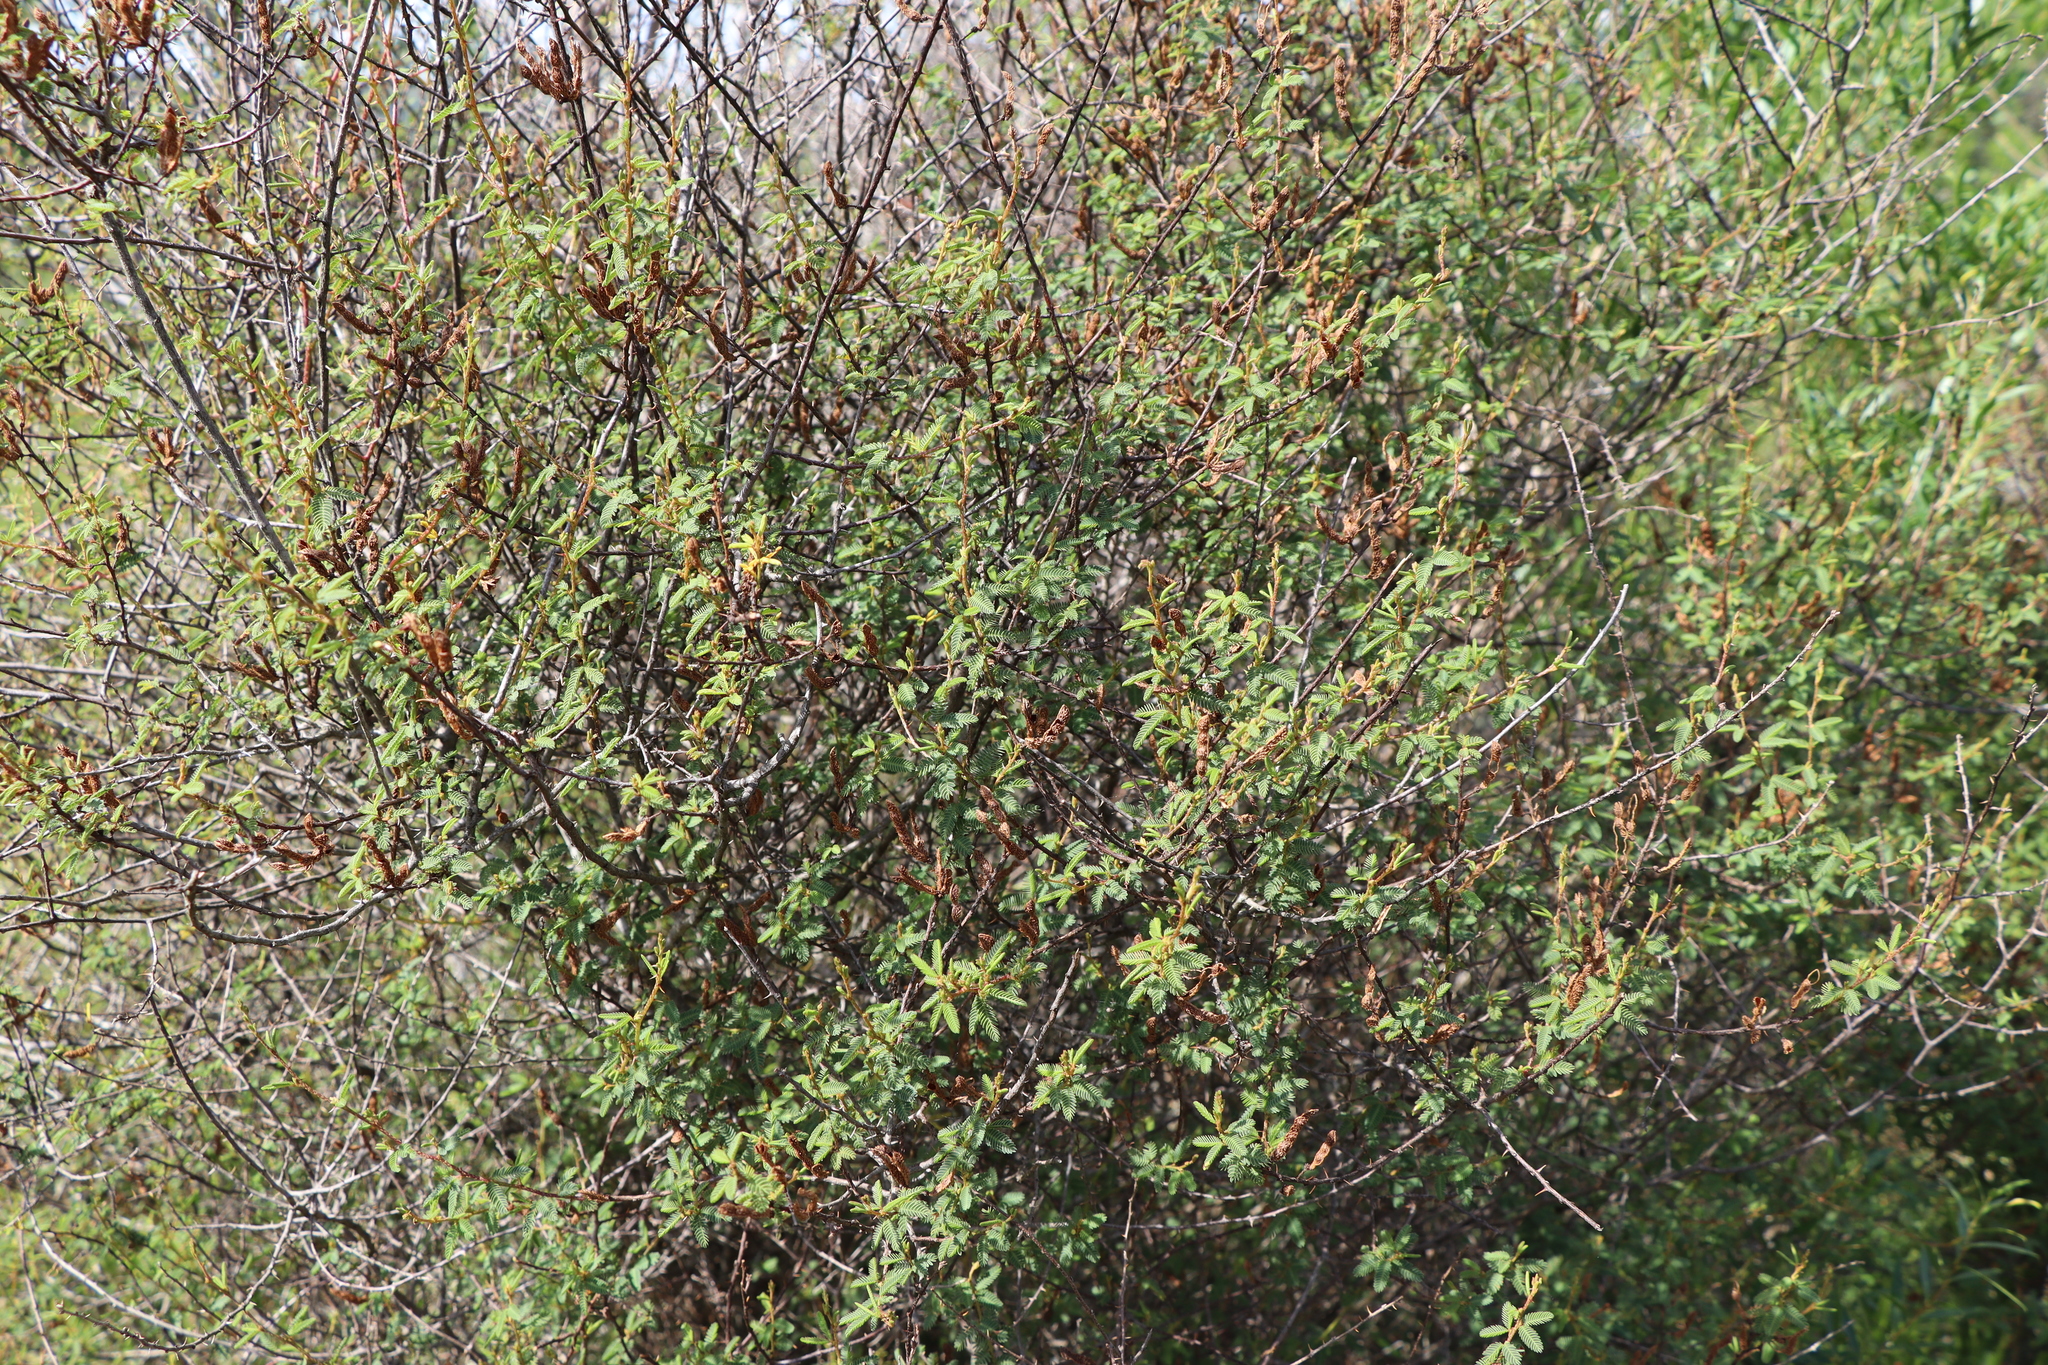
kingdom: Plantae
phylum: Tracheophyta
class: Magnoliopsida
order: Fabales
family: Fabaceae
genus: Mimosa
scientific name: Mimosa ramulosa
